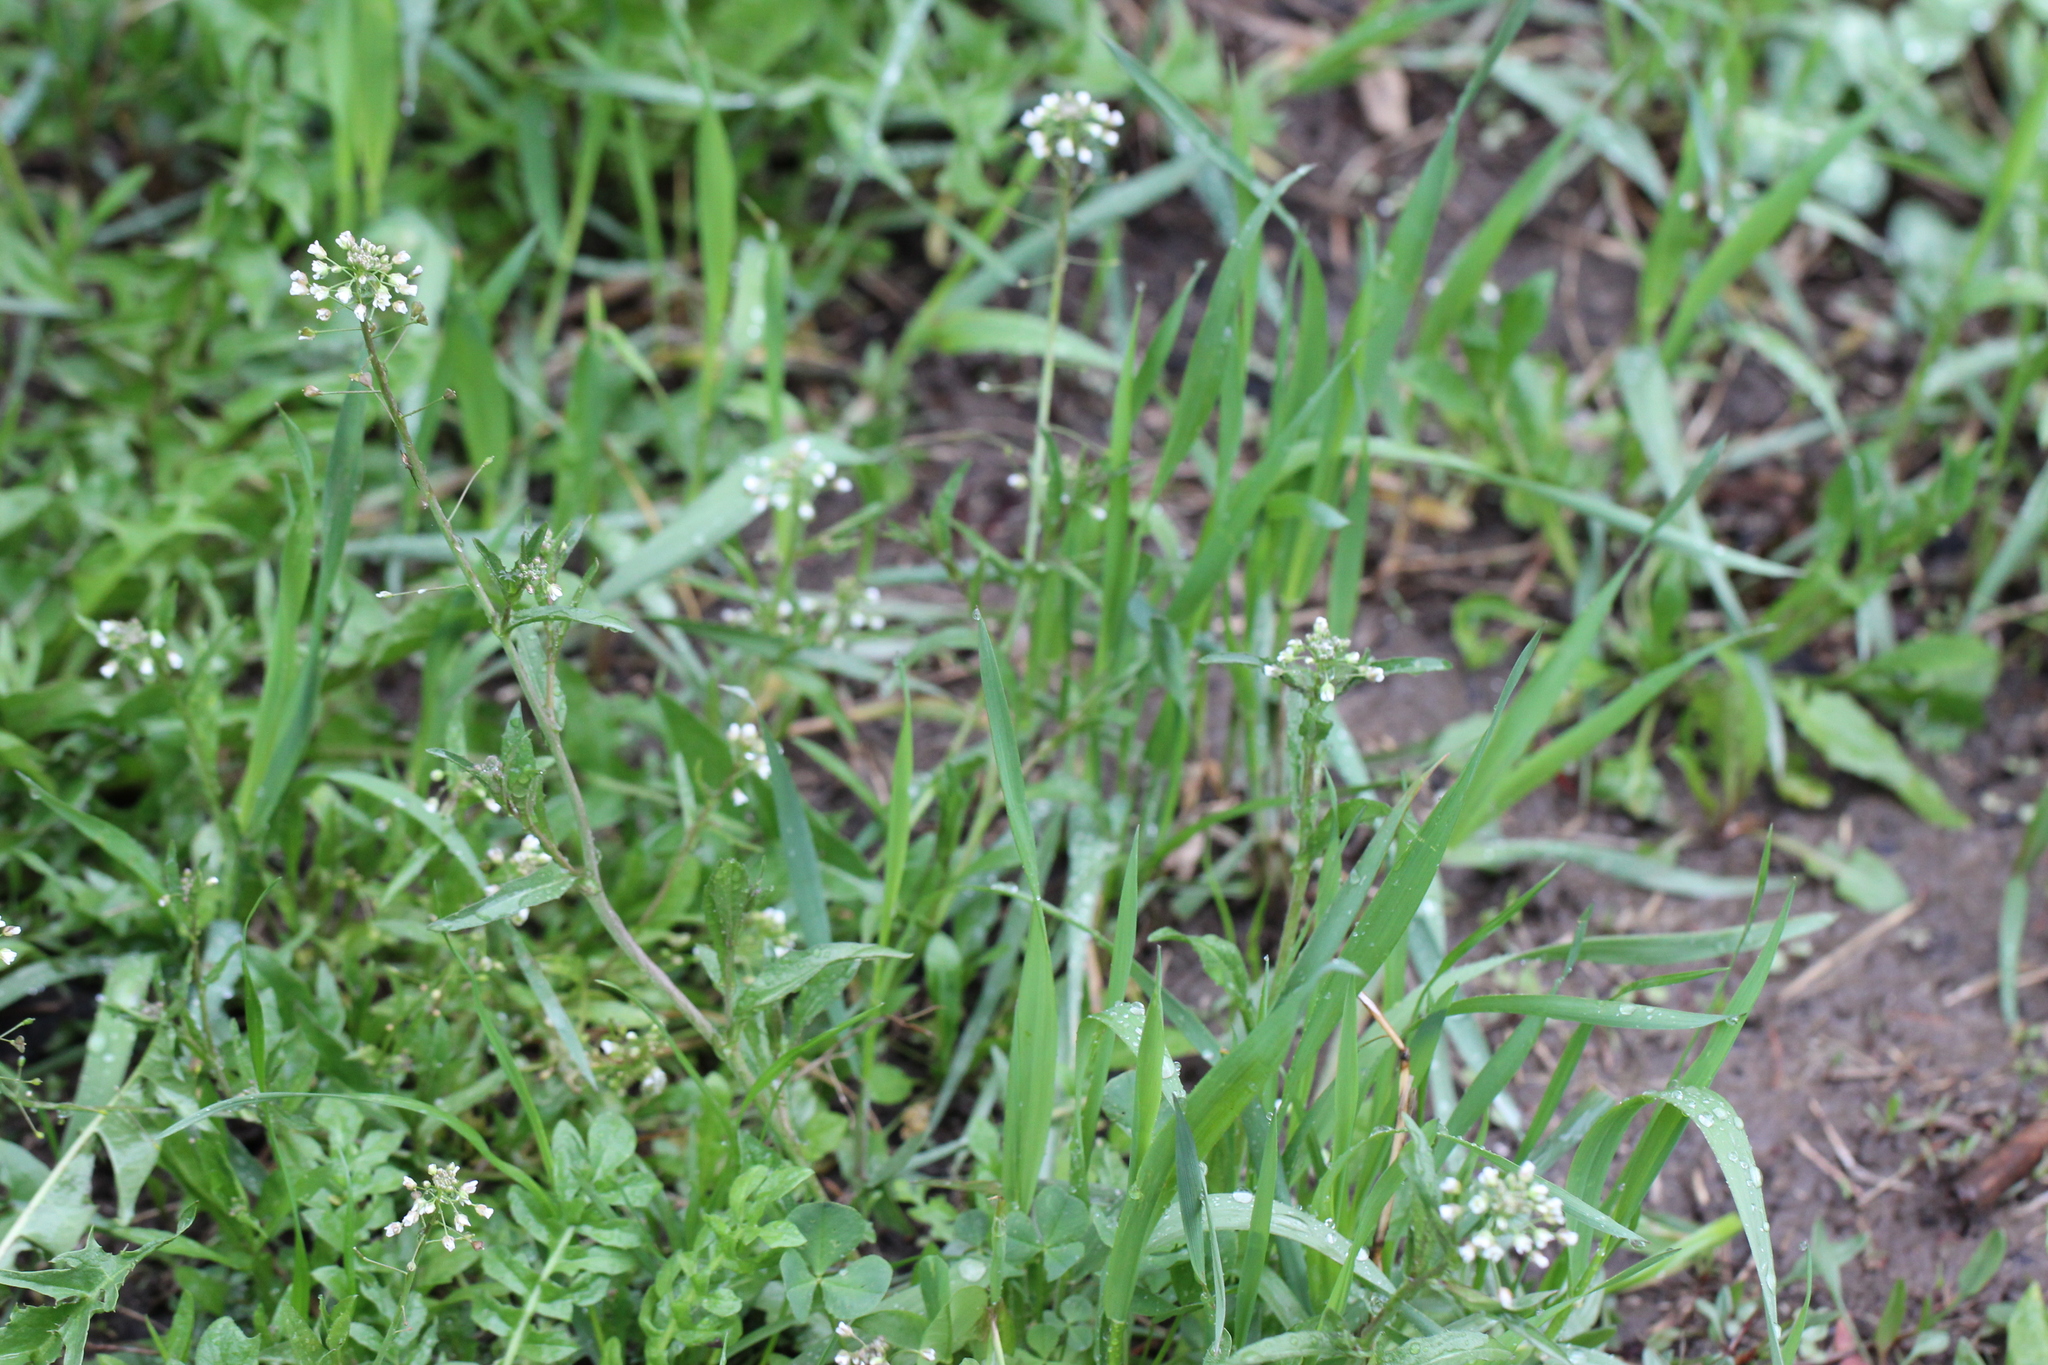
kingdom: Plantae
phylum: Tracheophyta
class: Magnoliopsida
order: Brassicales
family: Brassicaceae
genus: Capsella
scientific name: Capsella bursa-pastoris
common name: Shepherd's purse
